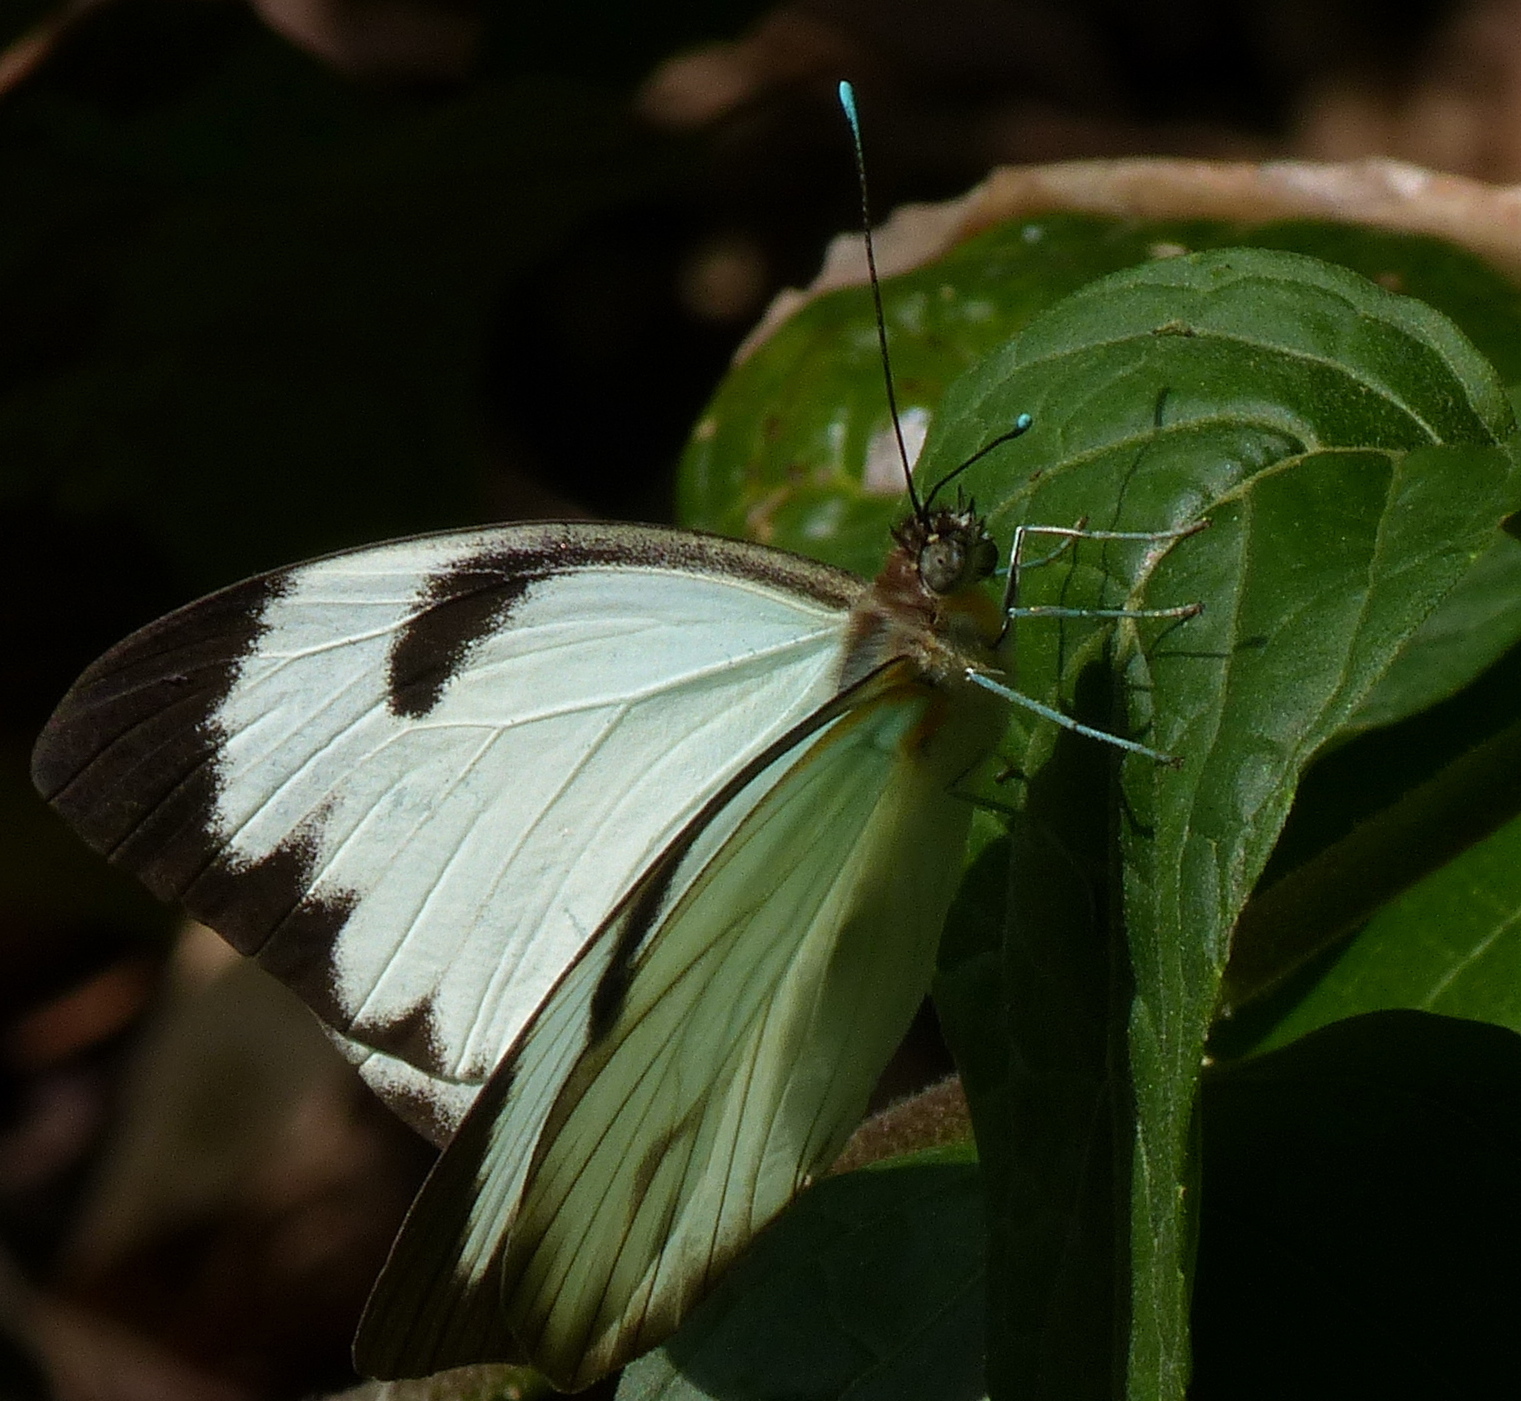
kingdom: Animalia
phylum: Arthropoda
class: Insecta
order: Lepidoptera
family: Pieridae
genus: Ganyra
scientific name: Ganyra phaloe
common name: Giant white
